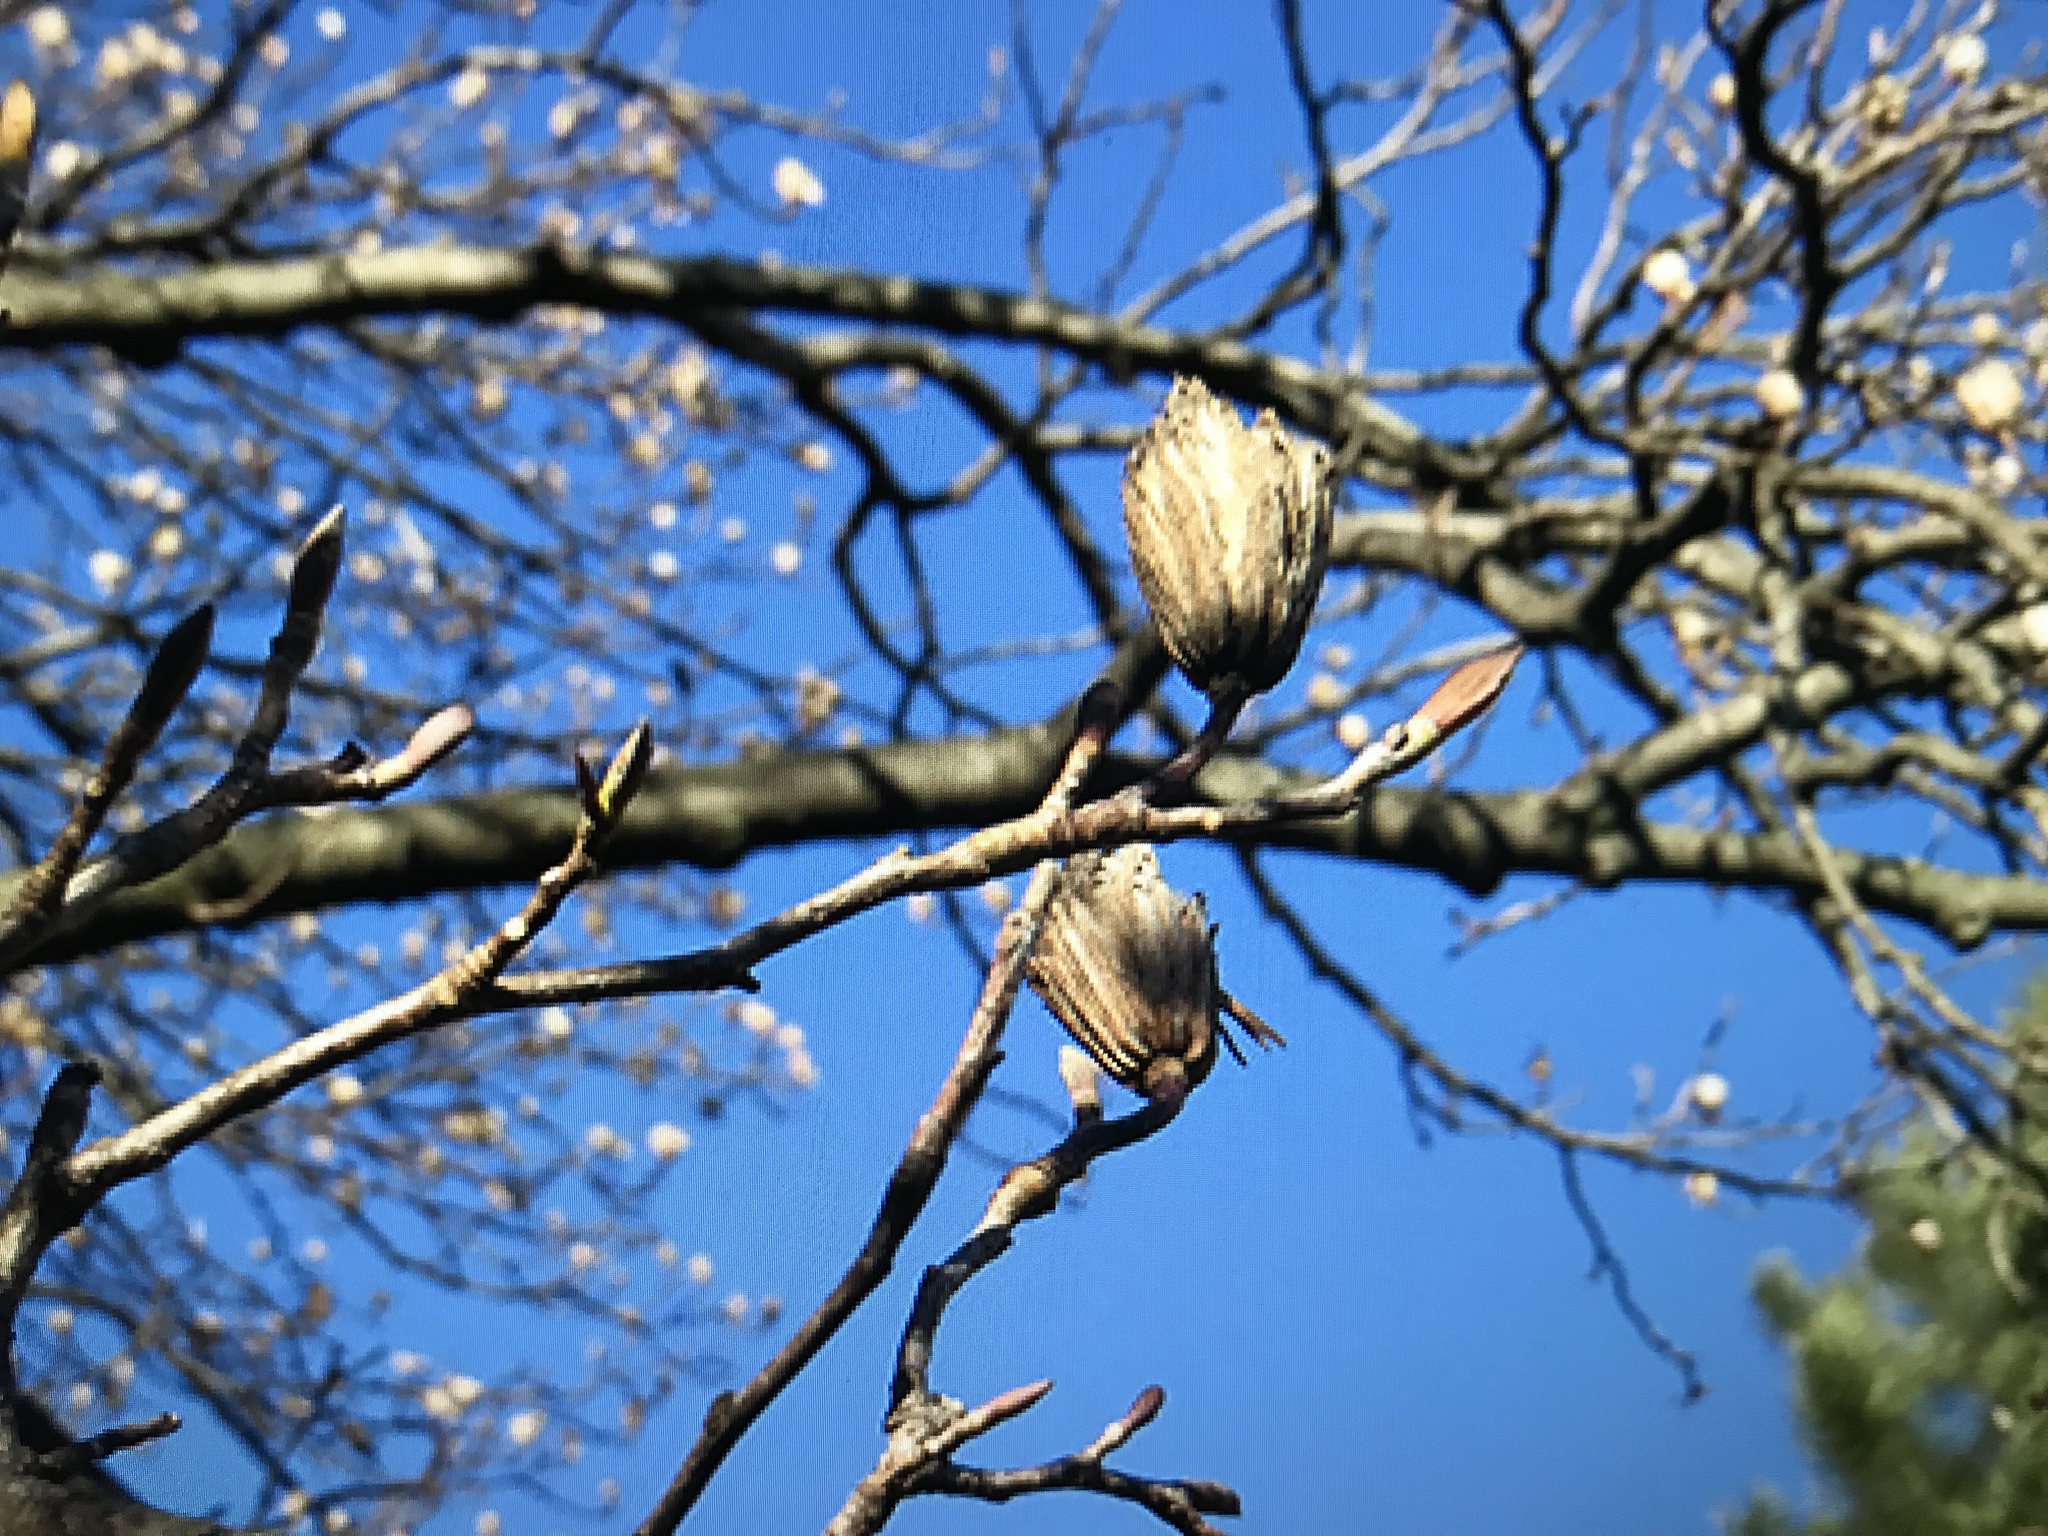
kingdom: Plantae
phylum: Tracheophyta
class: Magnoliopsida
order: Magnoliales
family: Magnoliaceae
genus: Liriodendron
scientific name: Liriodendron tulipifera
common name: Tulip tree
